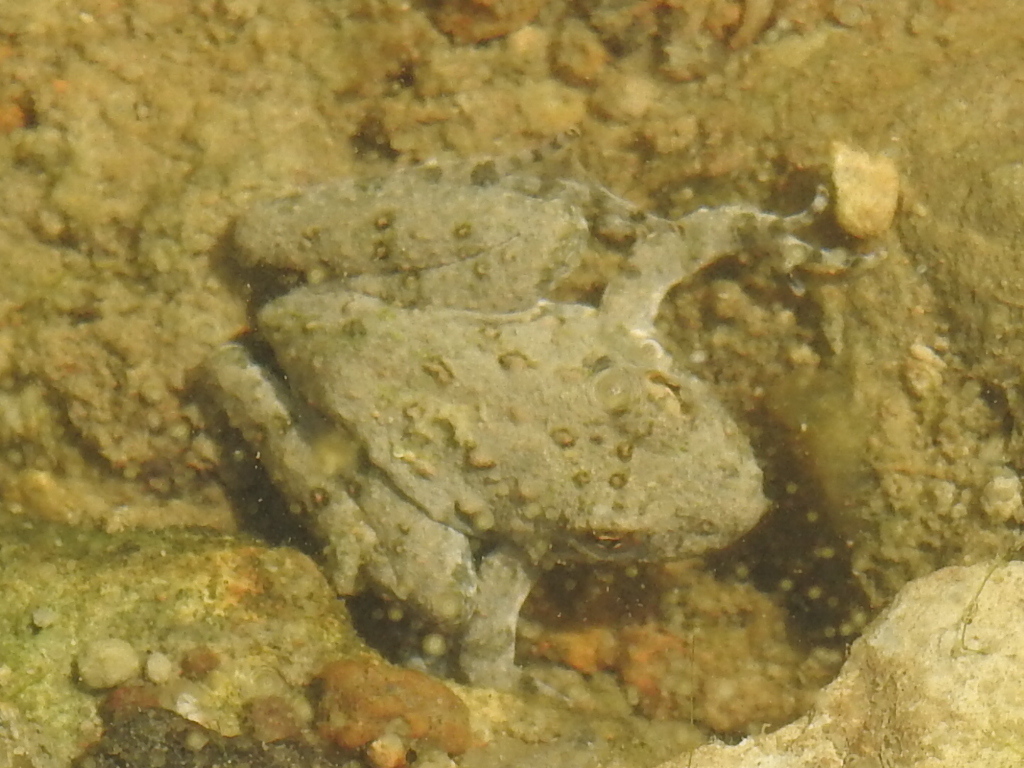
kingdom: Animalia
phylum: Chordata
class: Amphibia
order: Anura
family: Hylidae
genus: Acris
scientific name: Acris blanchardi
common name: Blanchard's cricket frog
